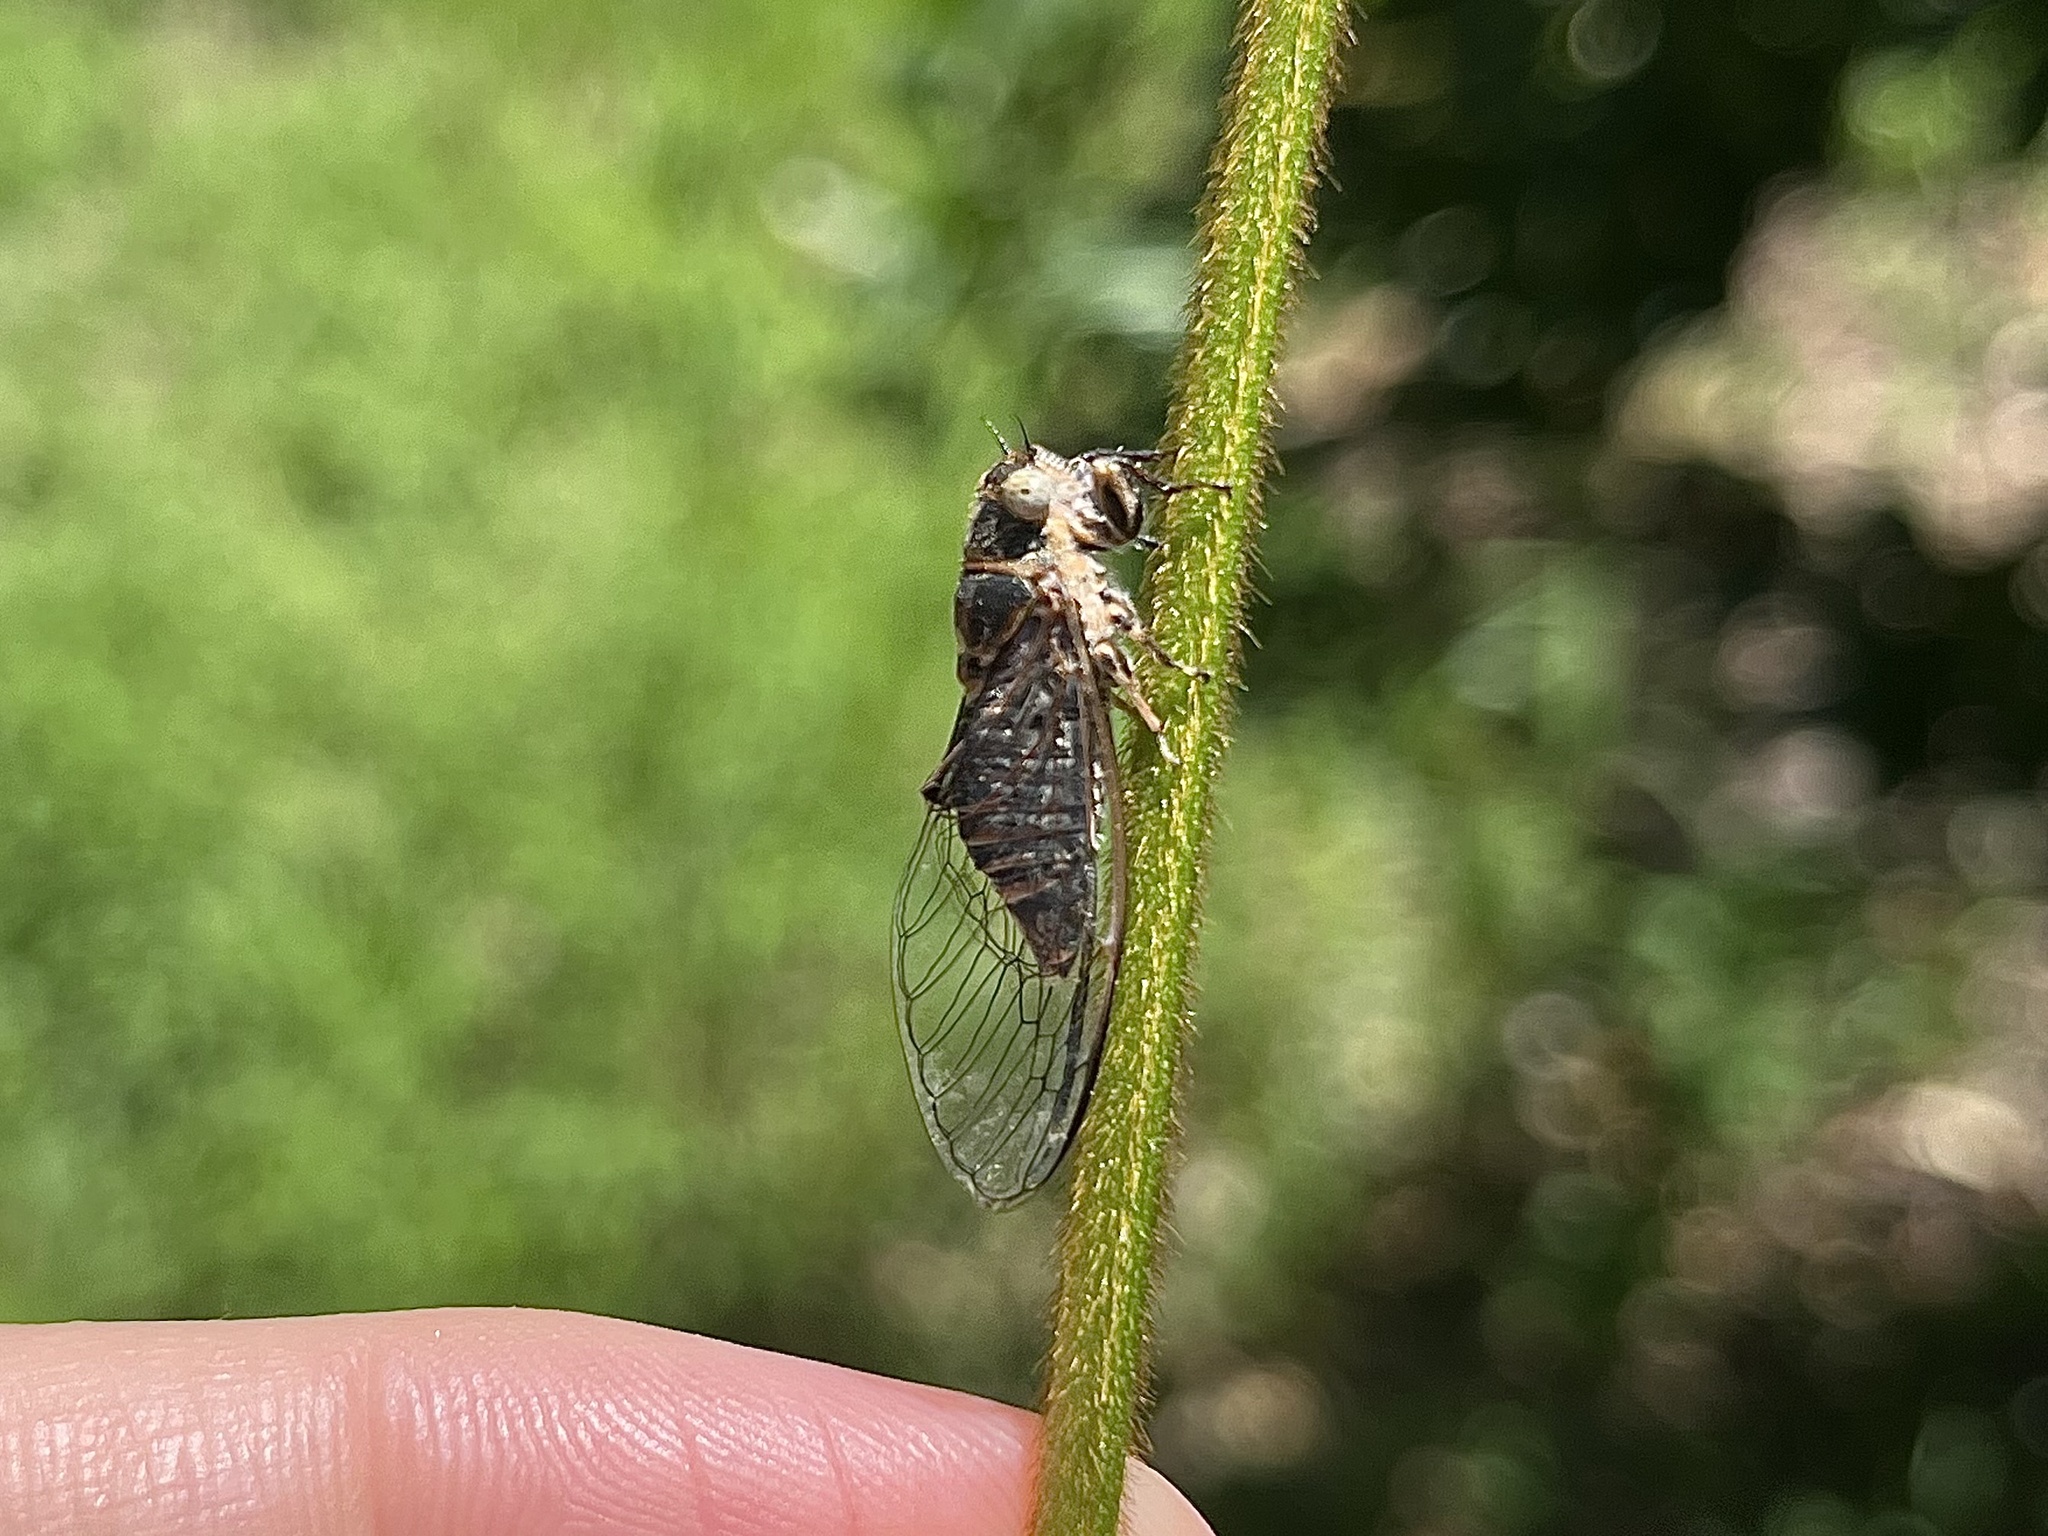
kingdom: Animalia
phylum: Arthropoda
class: Insecta
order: Hemiptera
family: Cicadidae
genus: Atrapsalta
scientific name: Atrapsalta corticina
